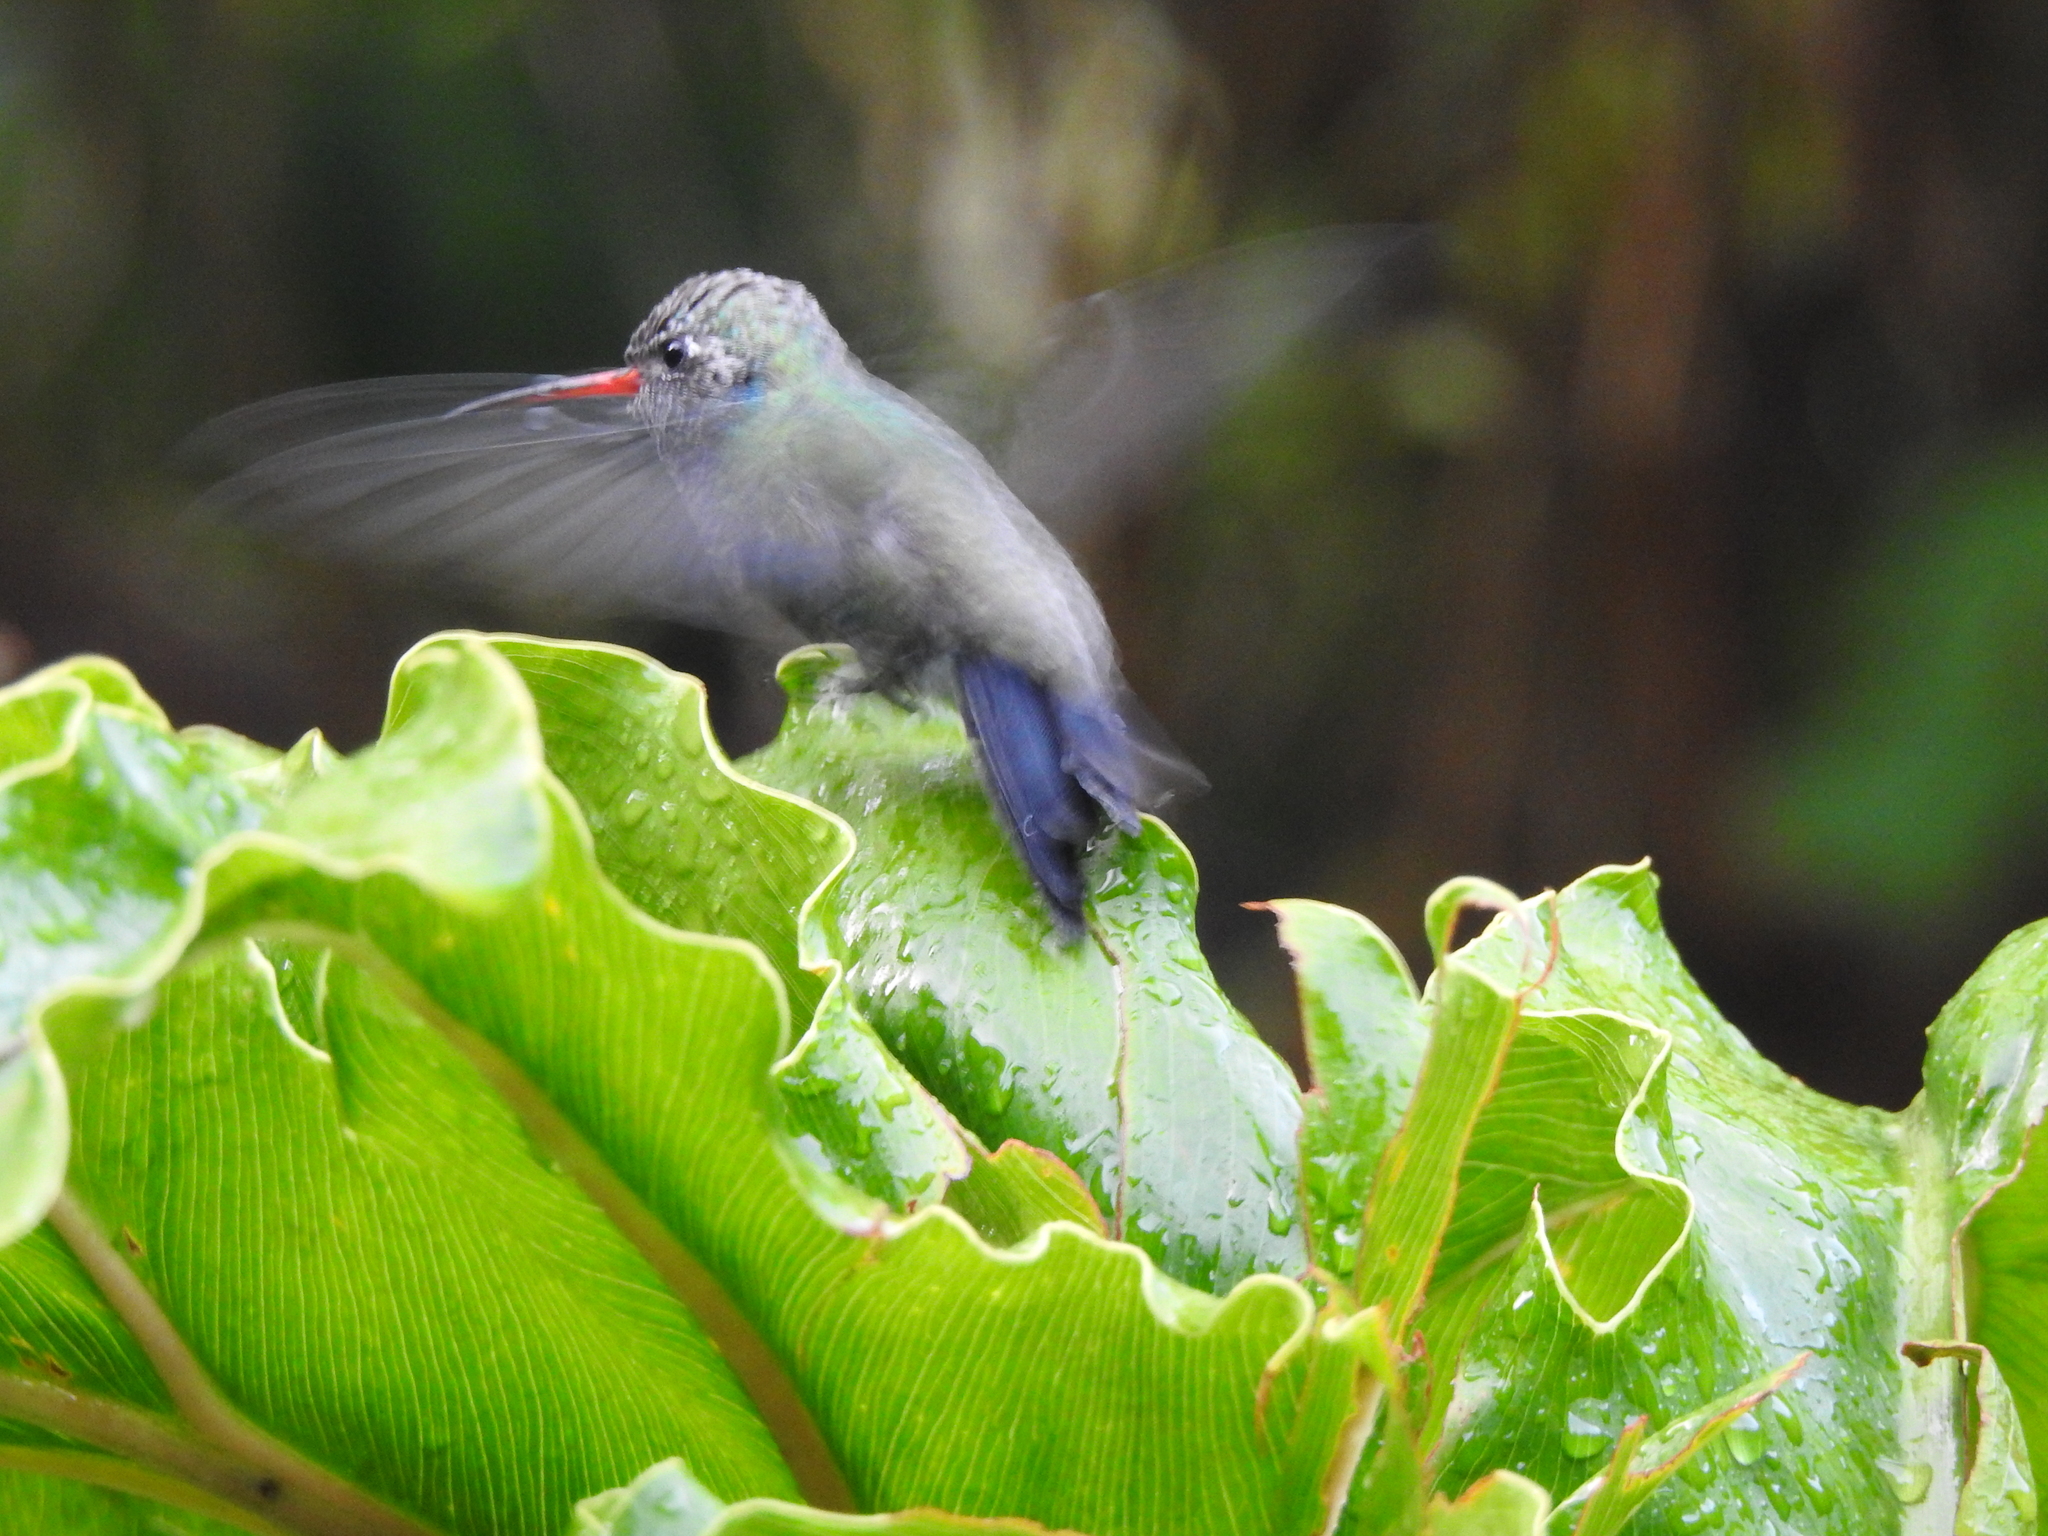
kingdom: Animalia
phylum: Chordata
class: Aves
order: Apodiformes
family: Trochilidae
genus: Cynanthus
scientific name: Cynanthus latirostris
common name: Broad-billed hummingbird
